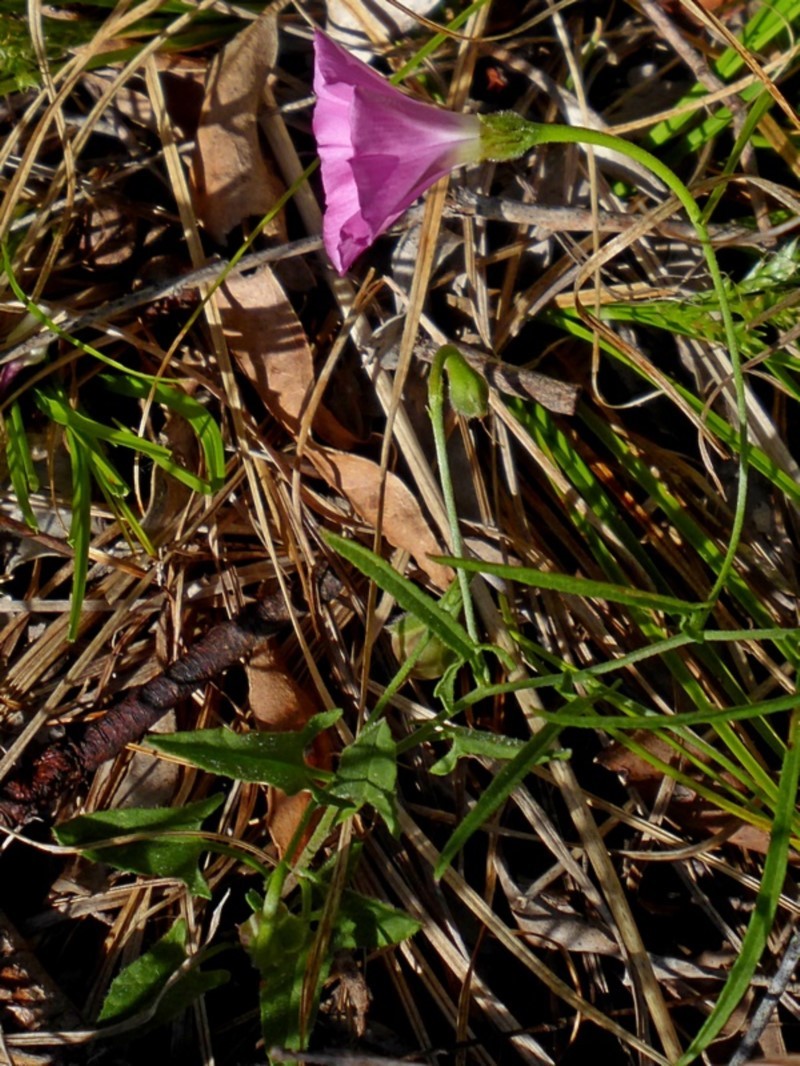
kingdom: Plantae
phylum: Tracheophyta
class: Magnoliopsida
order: Solanales
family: Convolvulaceae
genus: Convolvulus
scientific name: Convolvulus angustissimus
